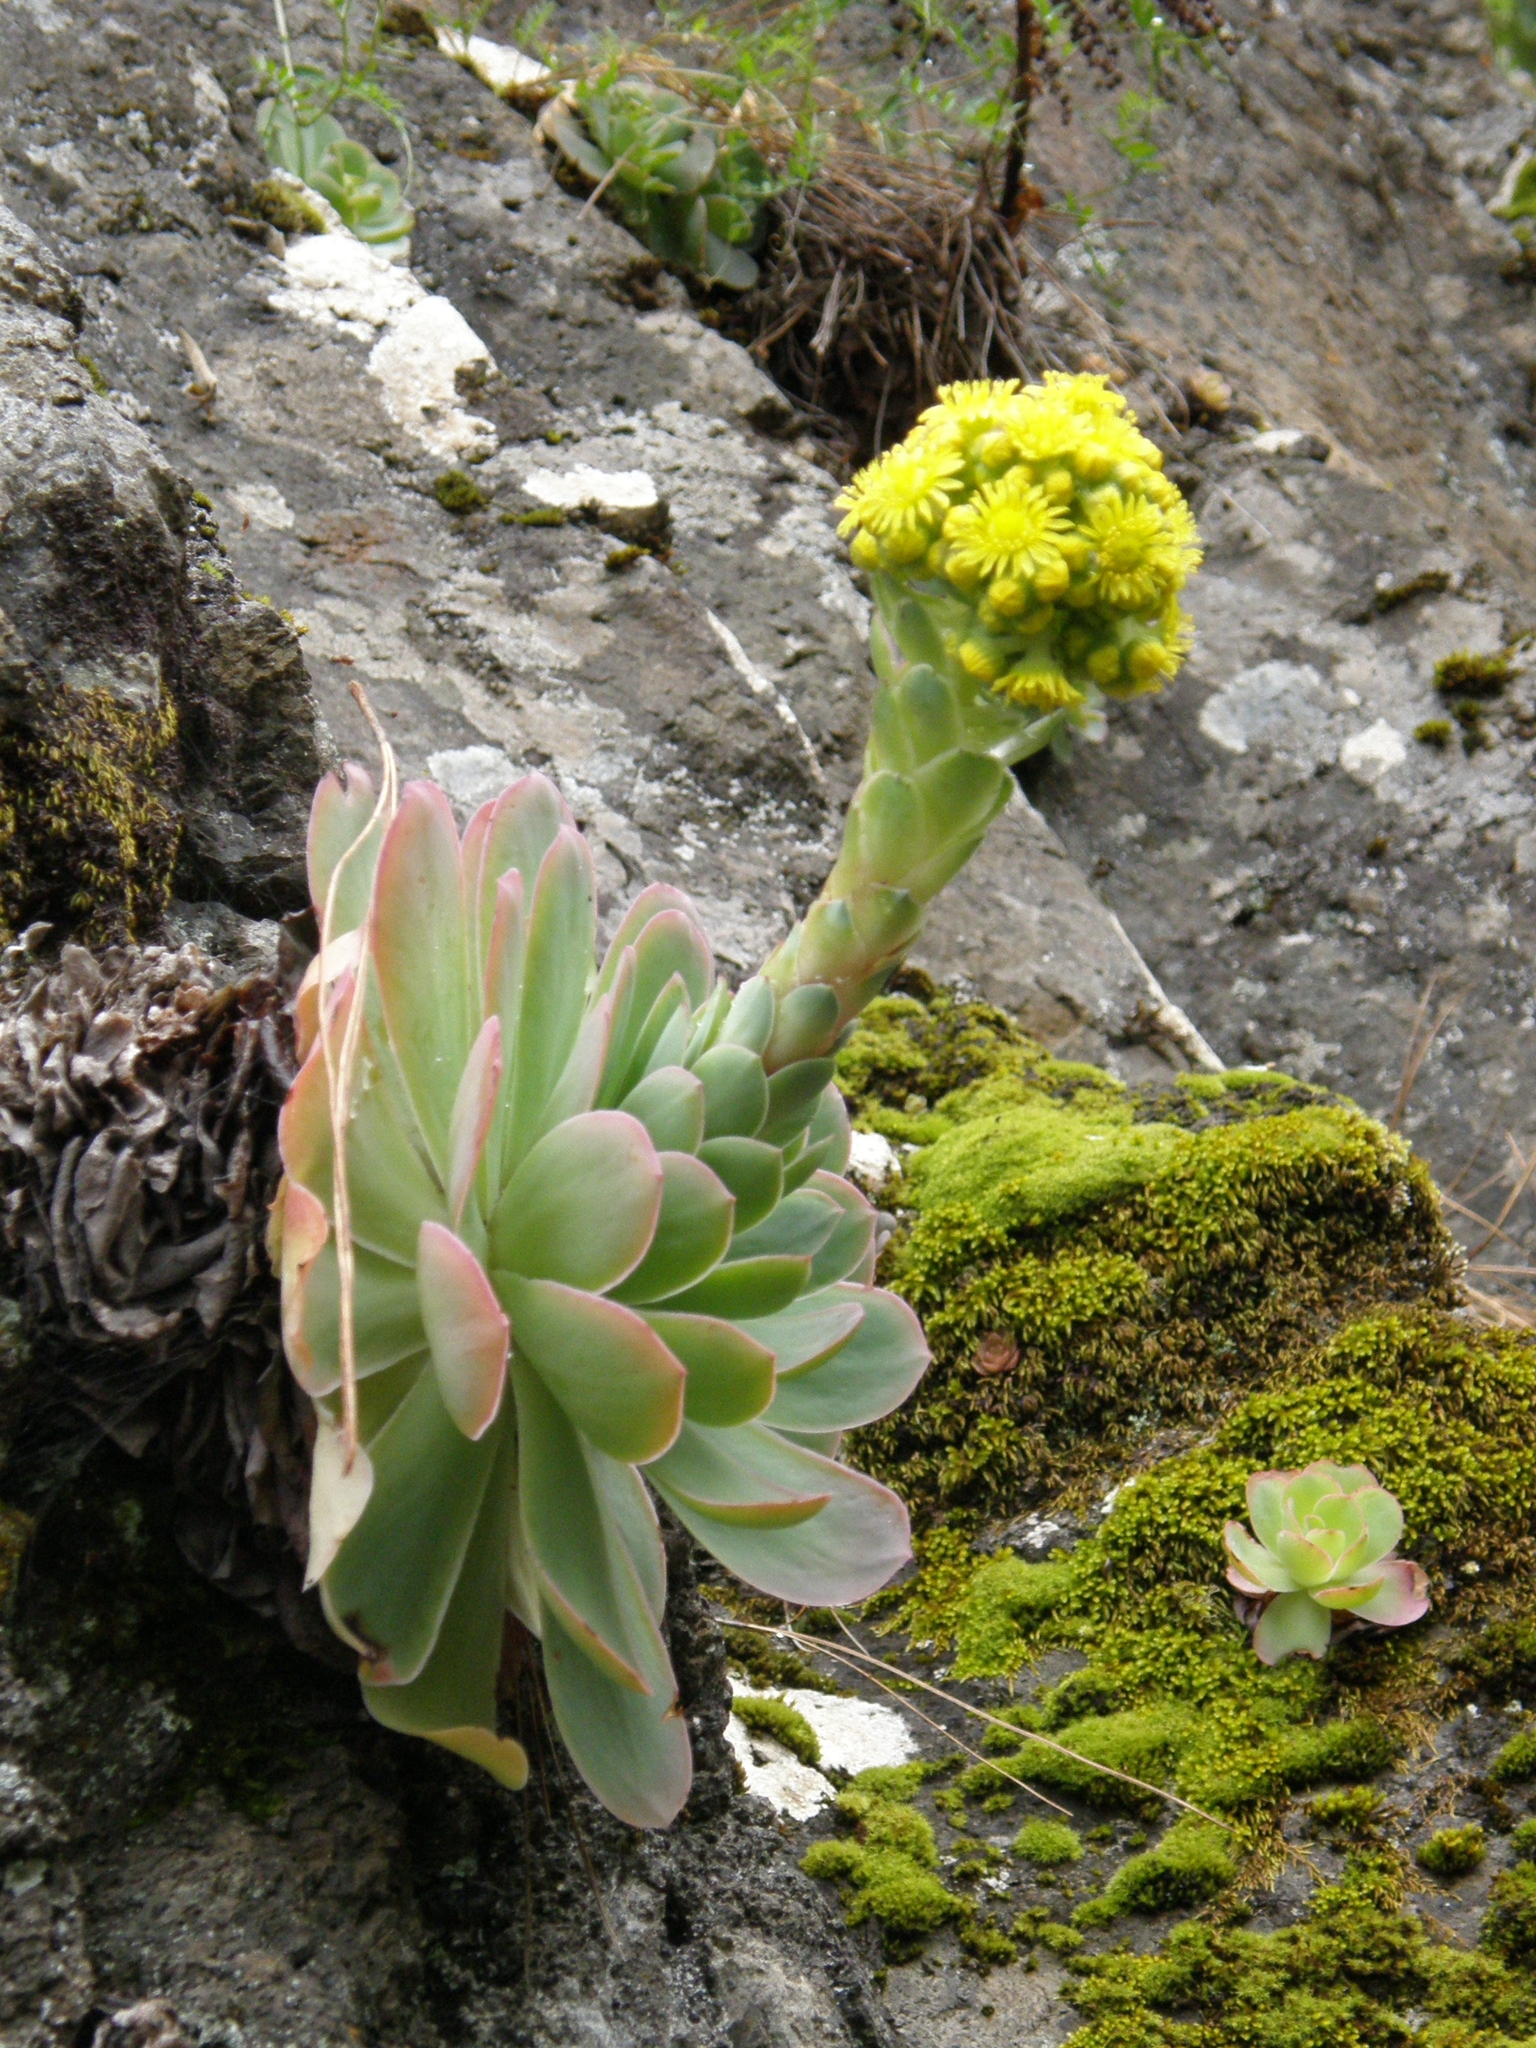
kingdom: Plantae
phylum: Tracheophyta
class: Magnoliopsida
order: Saxifragales
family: Crassulaceae
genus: Aeonium
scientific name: Aeonium diplocyclum
